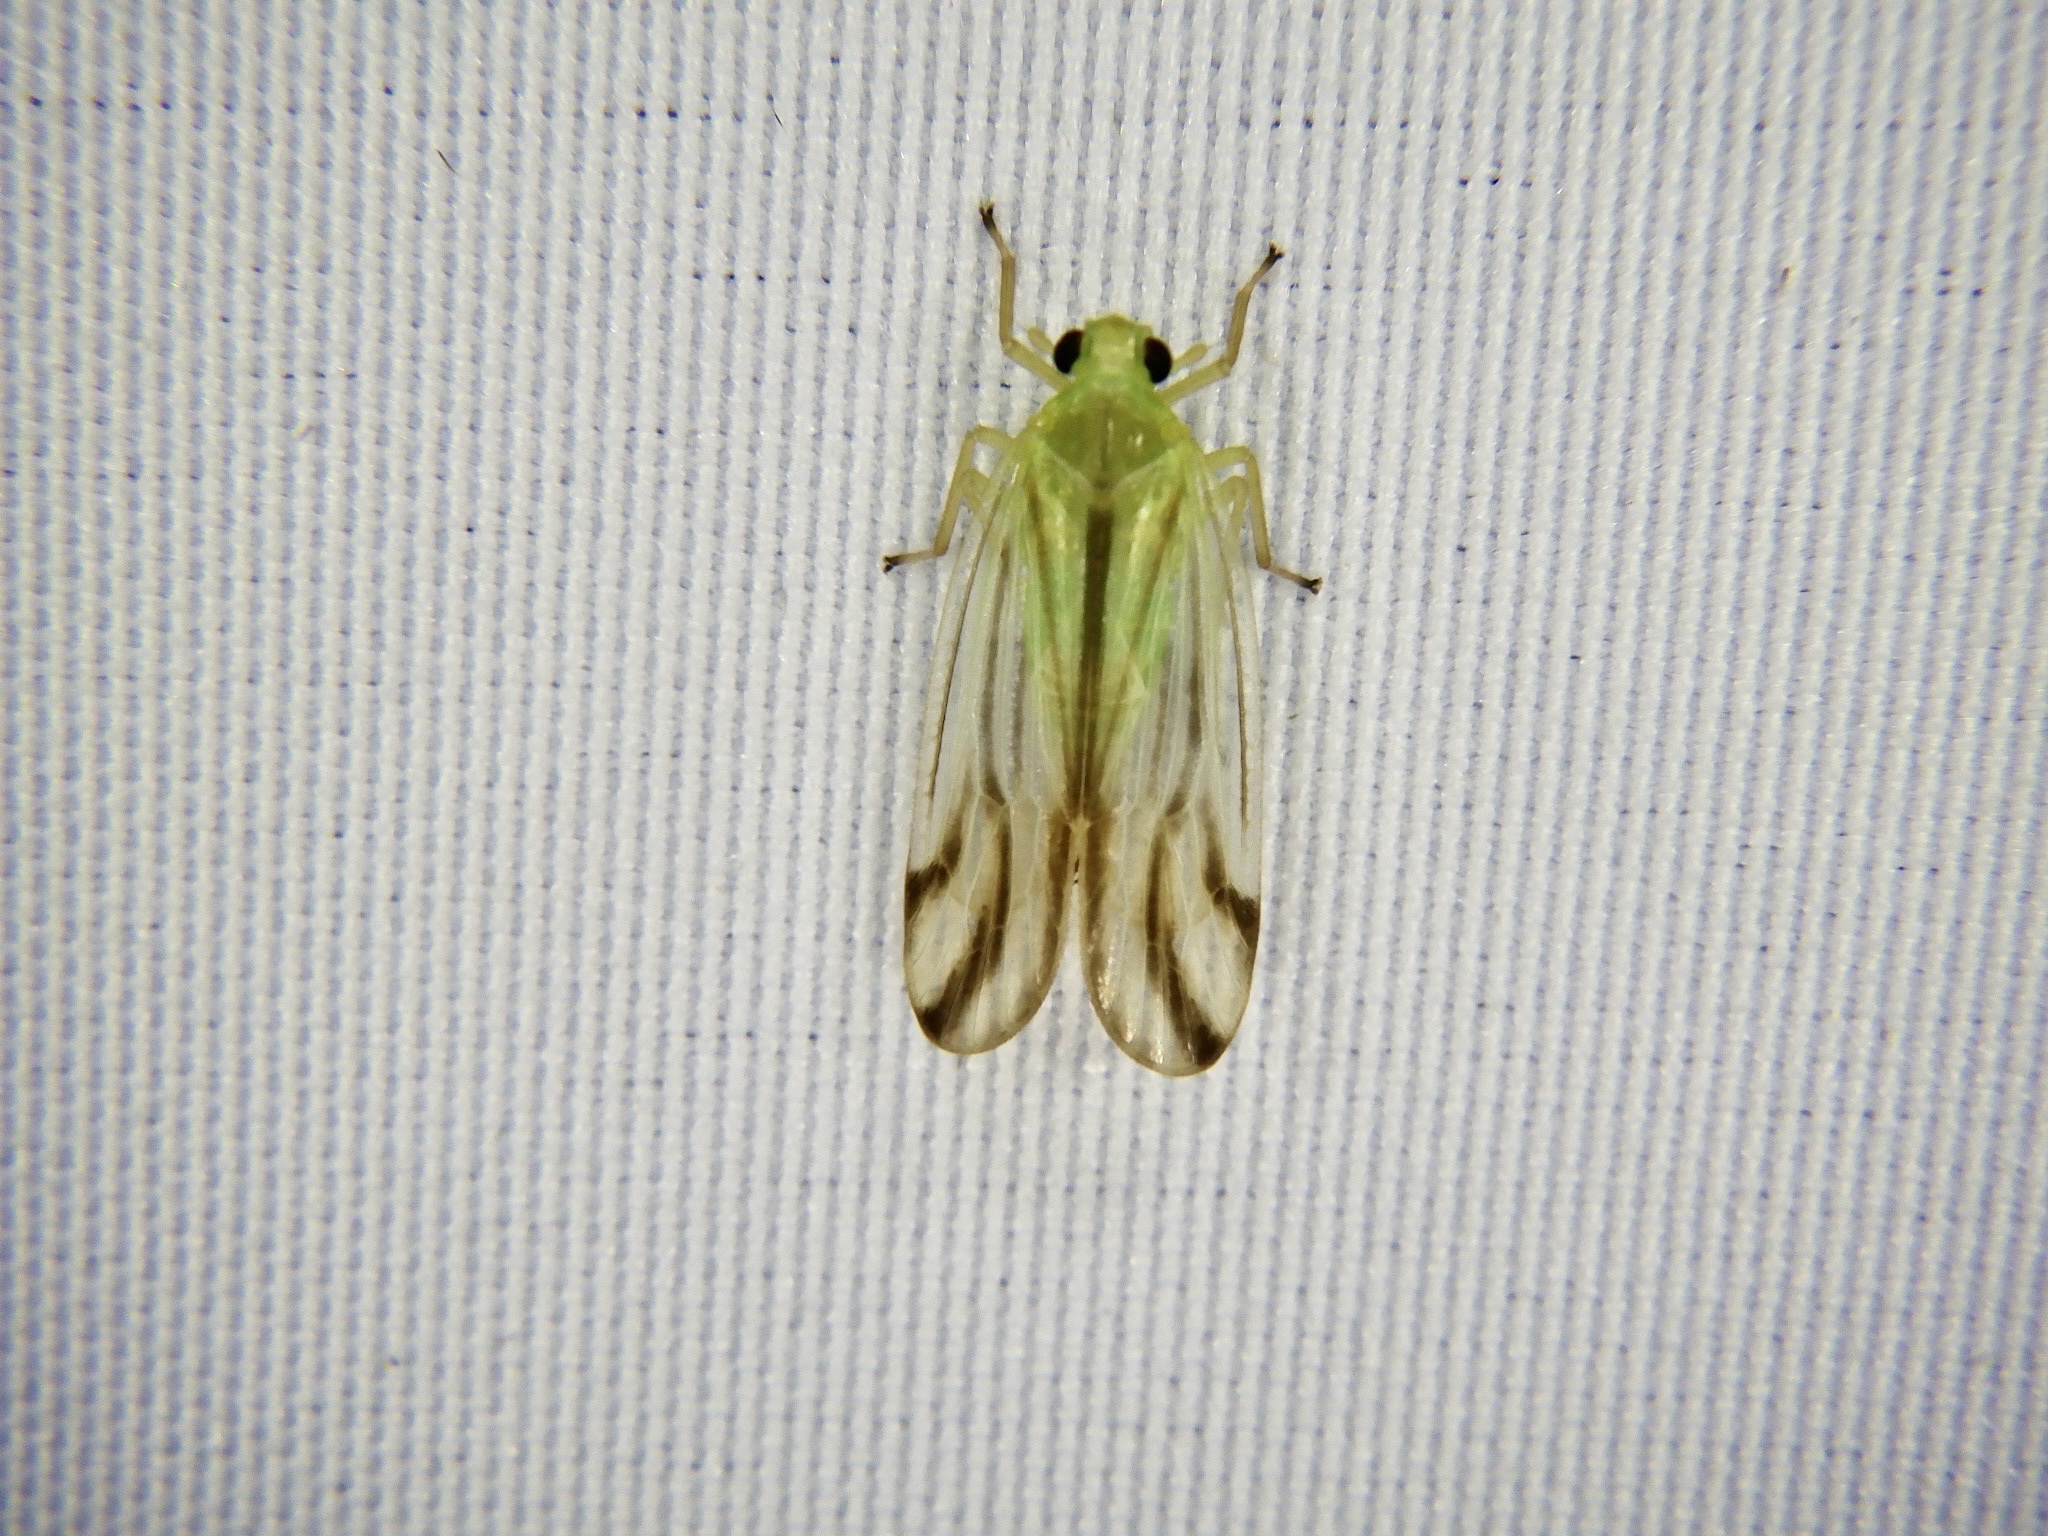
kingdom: Animalia
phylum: Arthropoda
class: Insecta
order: Hemiptera
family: Tropiduchidae
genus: Catullia
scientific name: Catullia vittata
